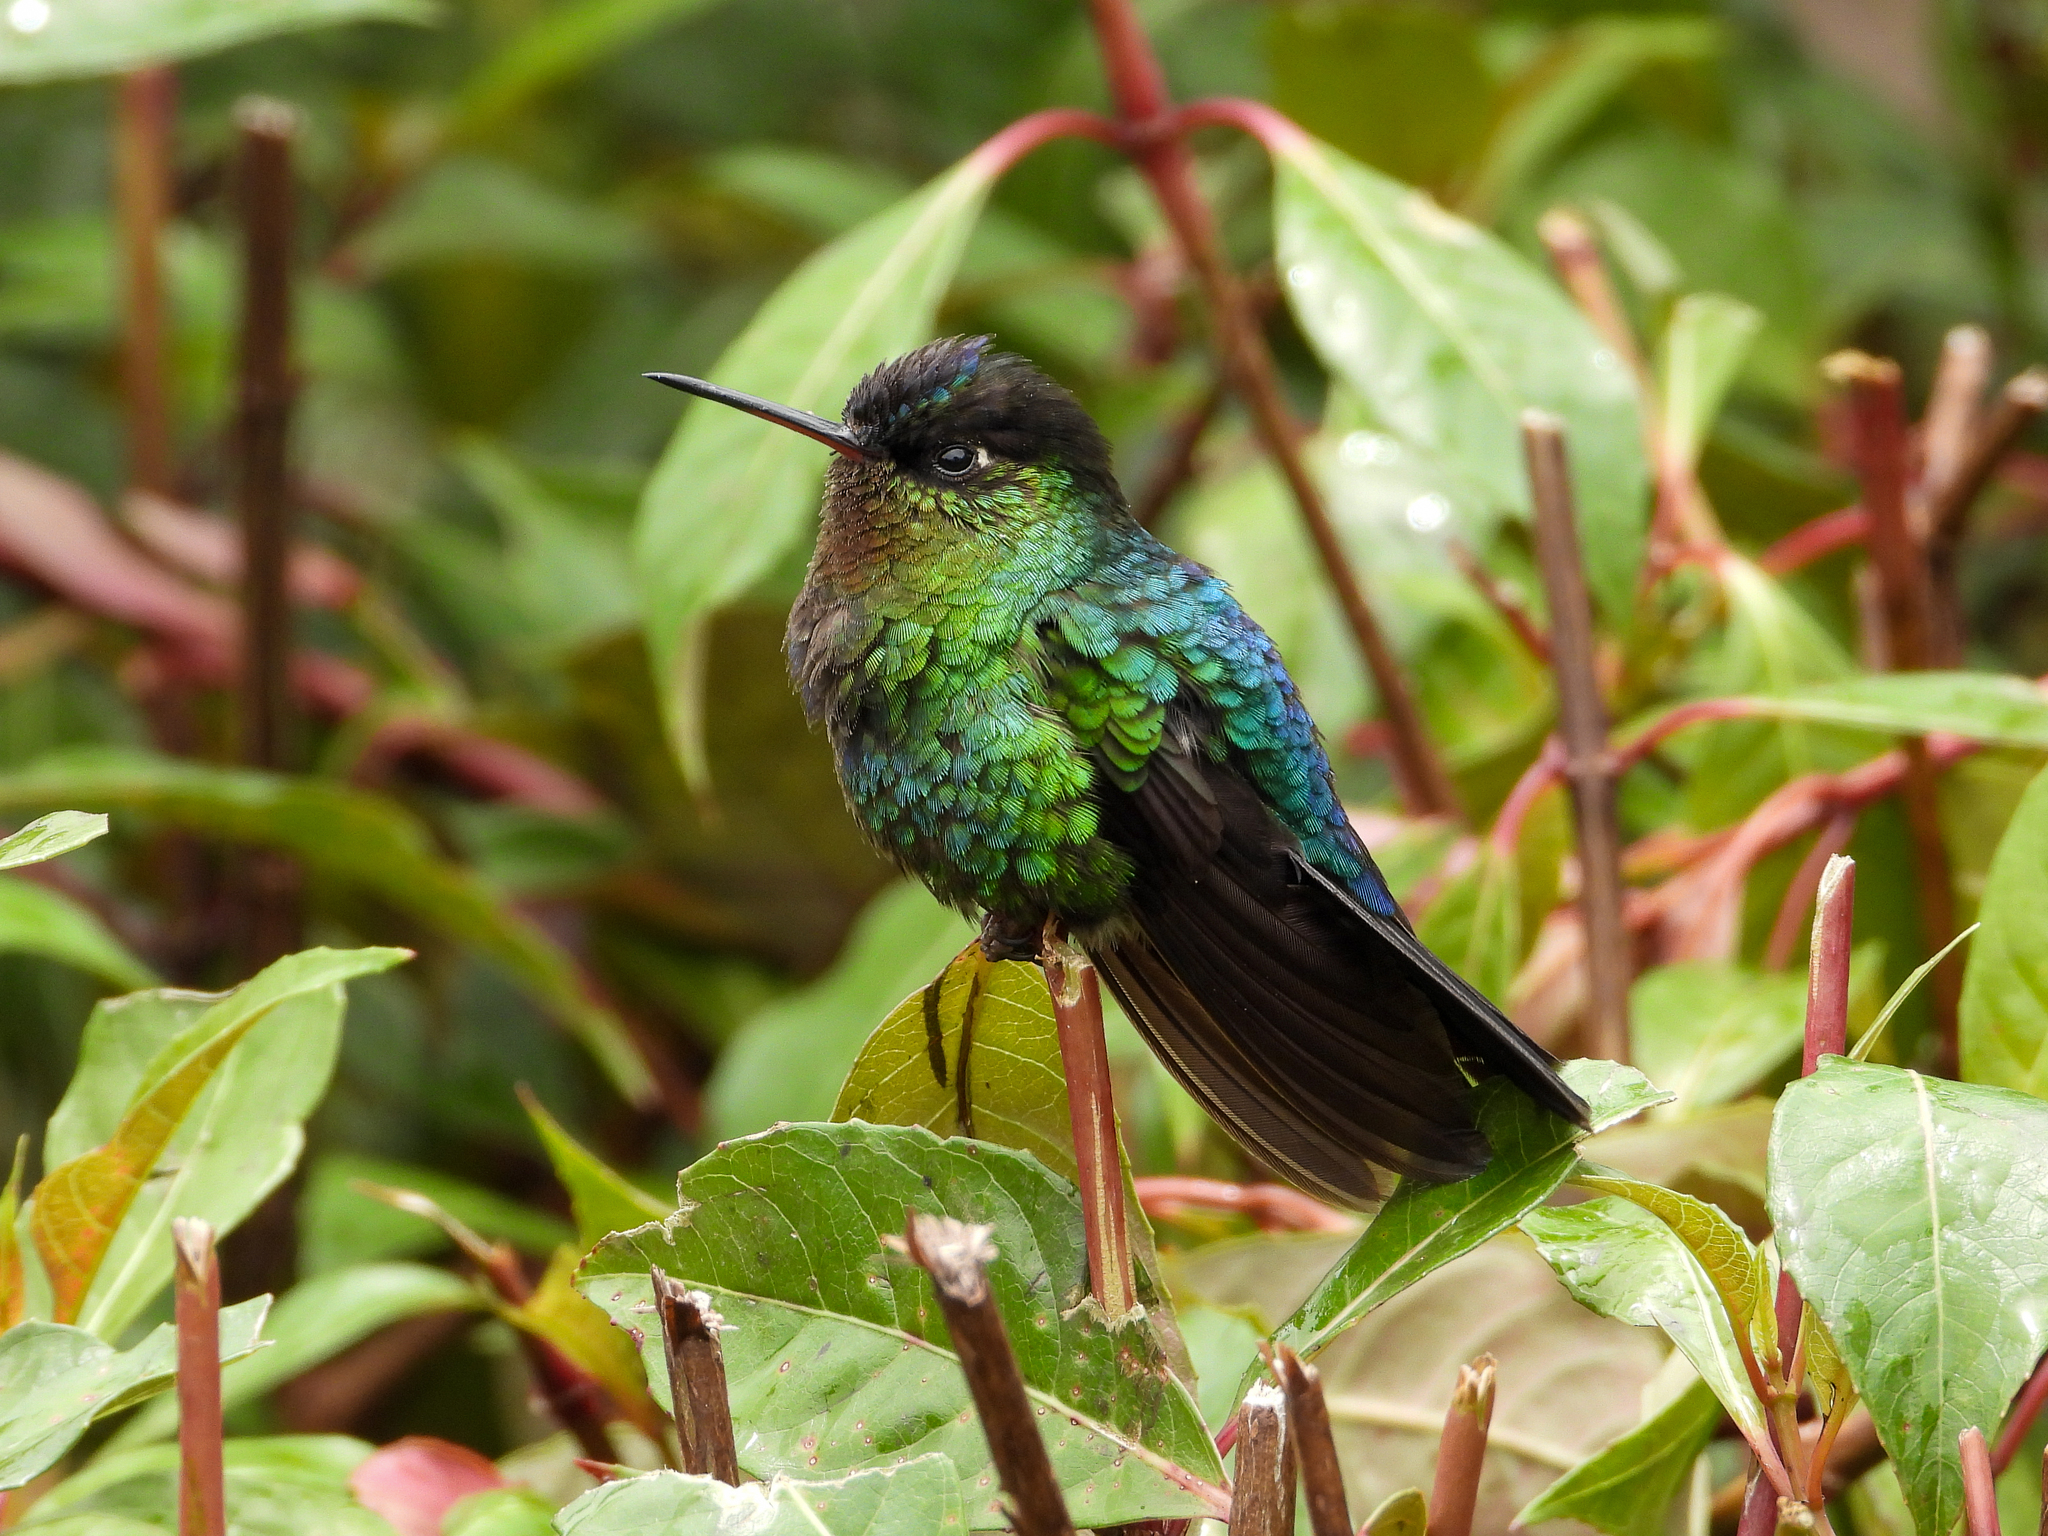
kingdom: Animalia
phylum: Chordata
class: Aves
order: Apodiformes
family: Trochilidae
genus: Panterpe
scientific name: Panterpe insignis
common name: Fiery-throated hummingbird
